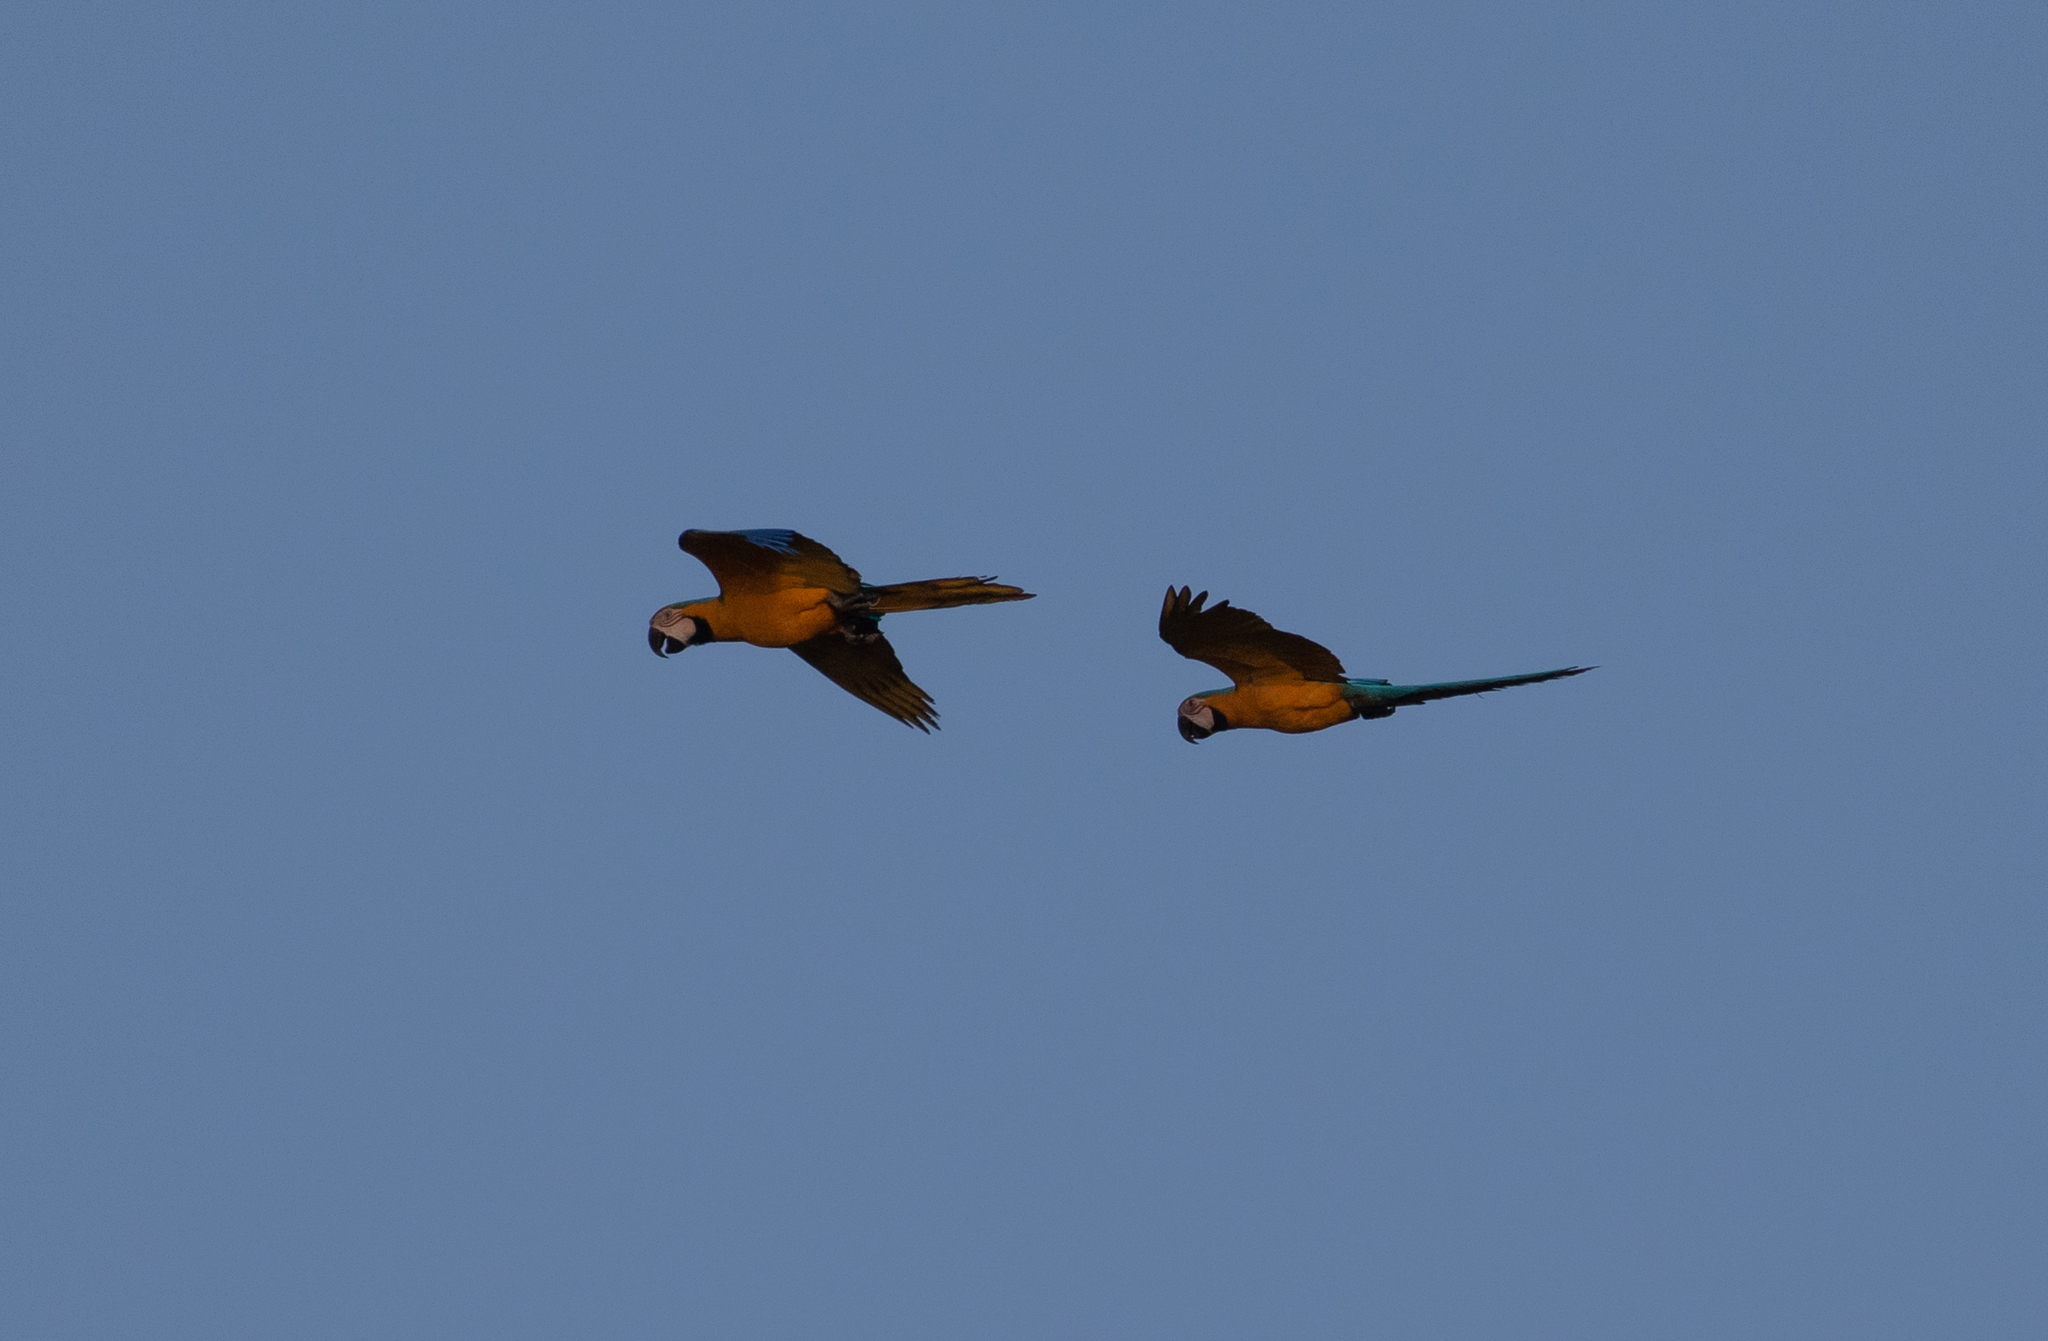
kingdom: Animalia
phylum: Chordata
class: Aves
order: Psittaciformes
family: Psittacidae
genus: Ara
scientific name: Ara ararauna
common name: Blue-and-yellow macaw
